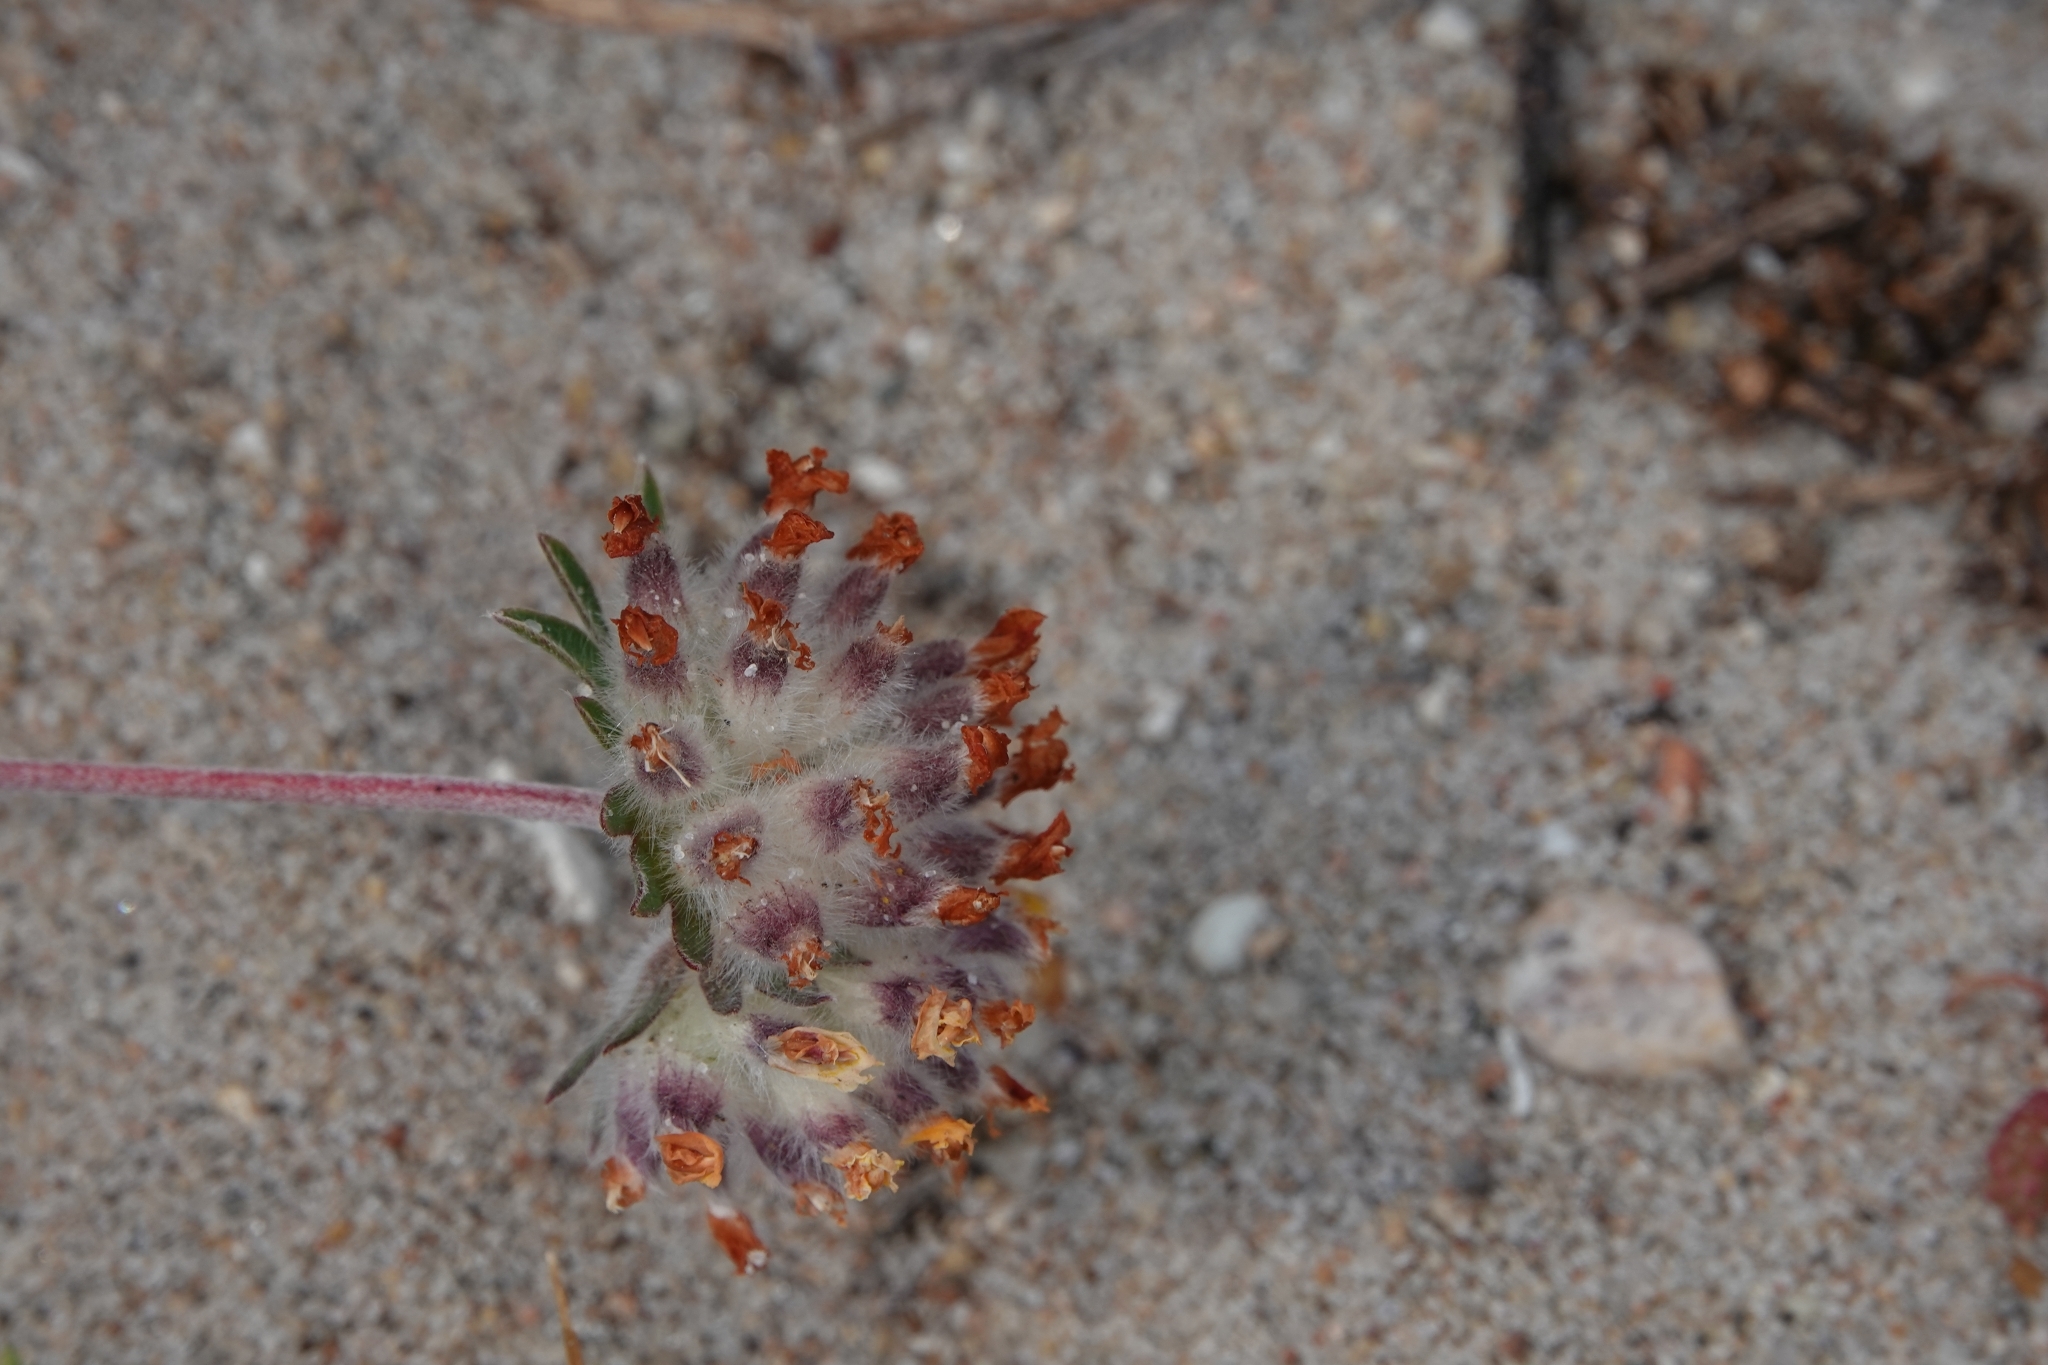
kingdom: Plantae
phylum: Tracheophyta
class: Magnoliopsida
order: Fabales
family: Fabaceae
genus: Anthyllis
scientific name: Anthyllis vulneraria
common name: Kidney vetch
